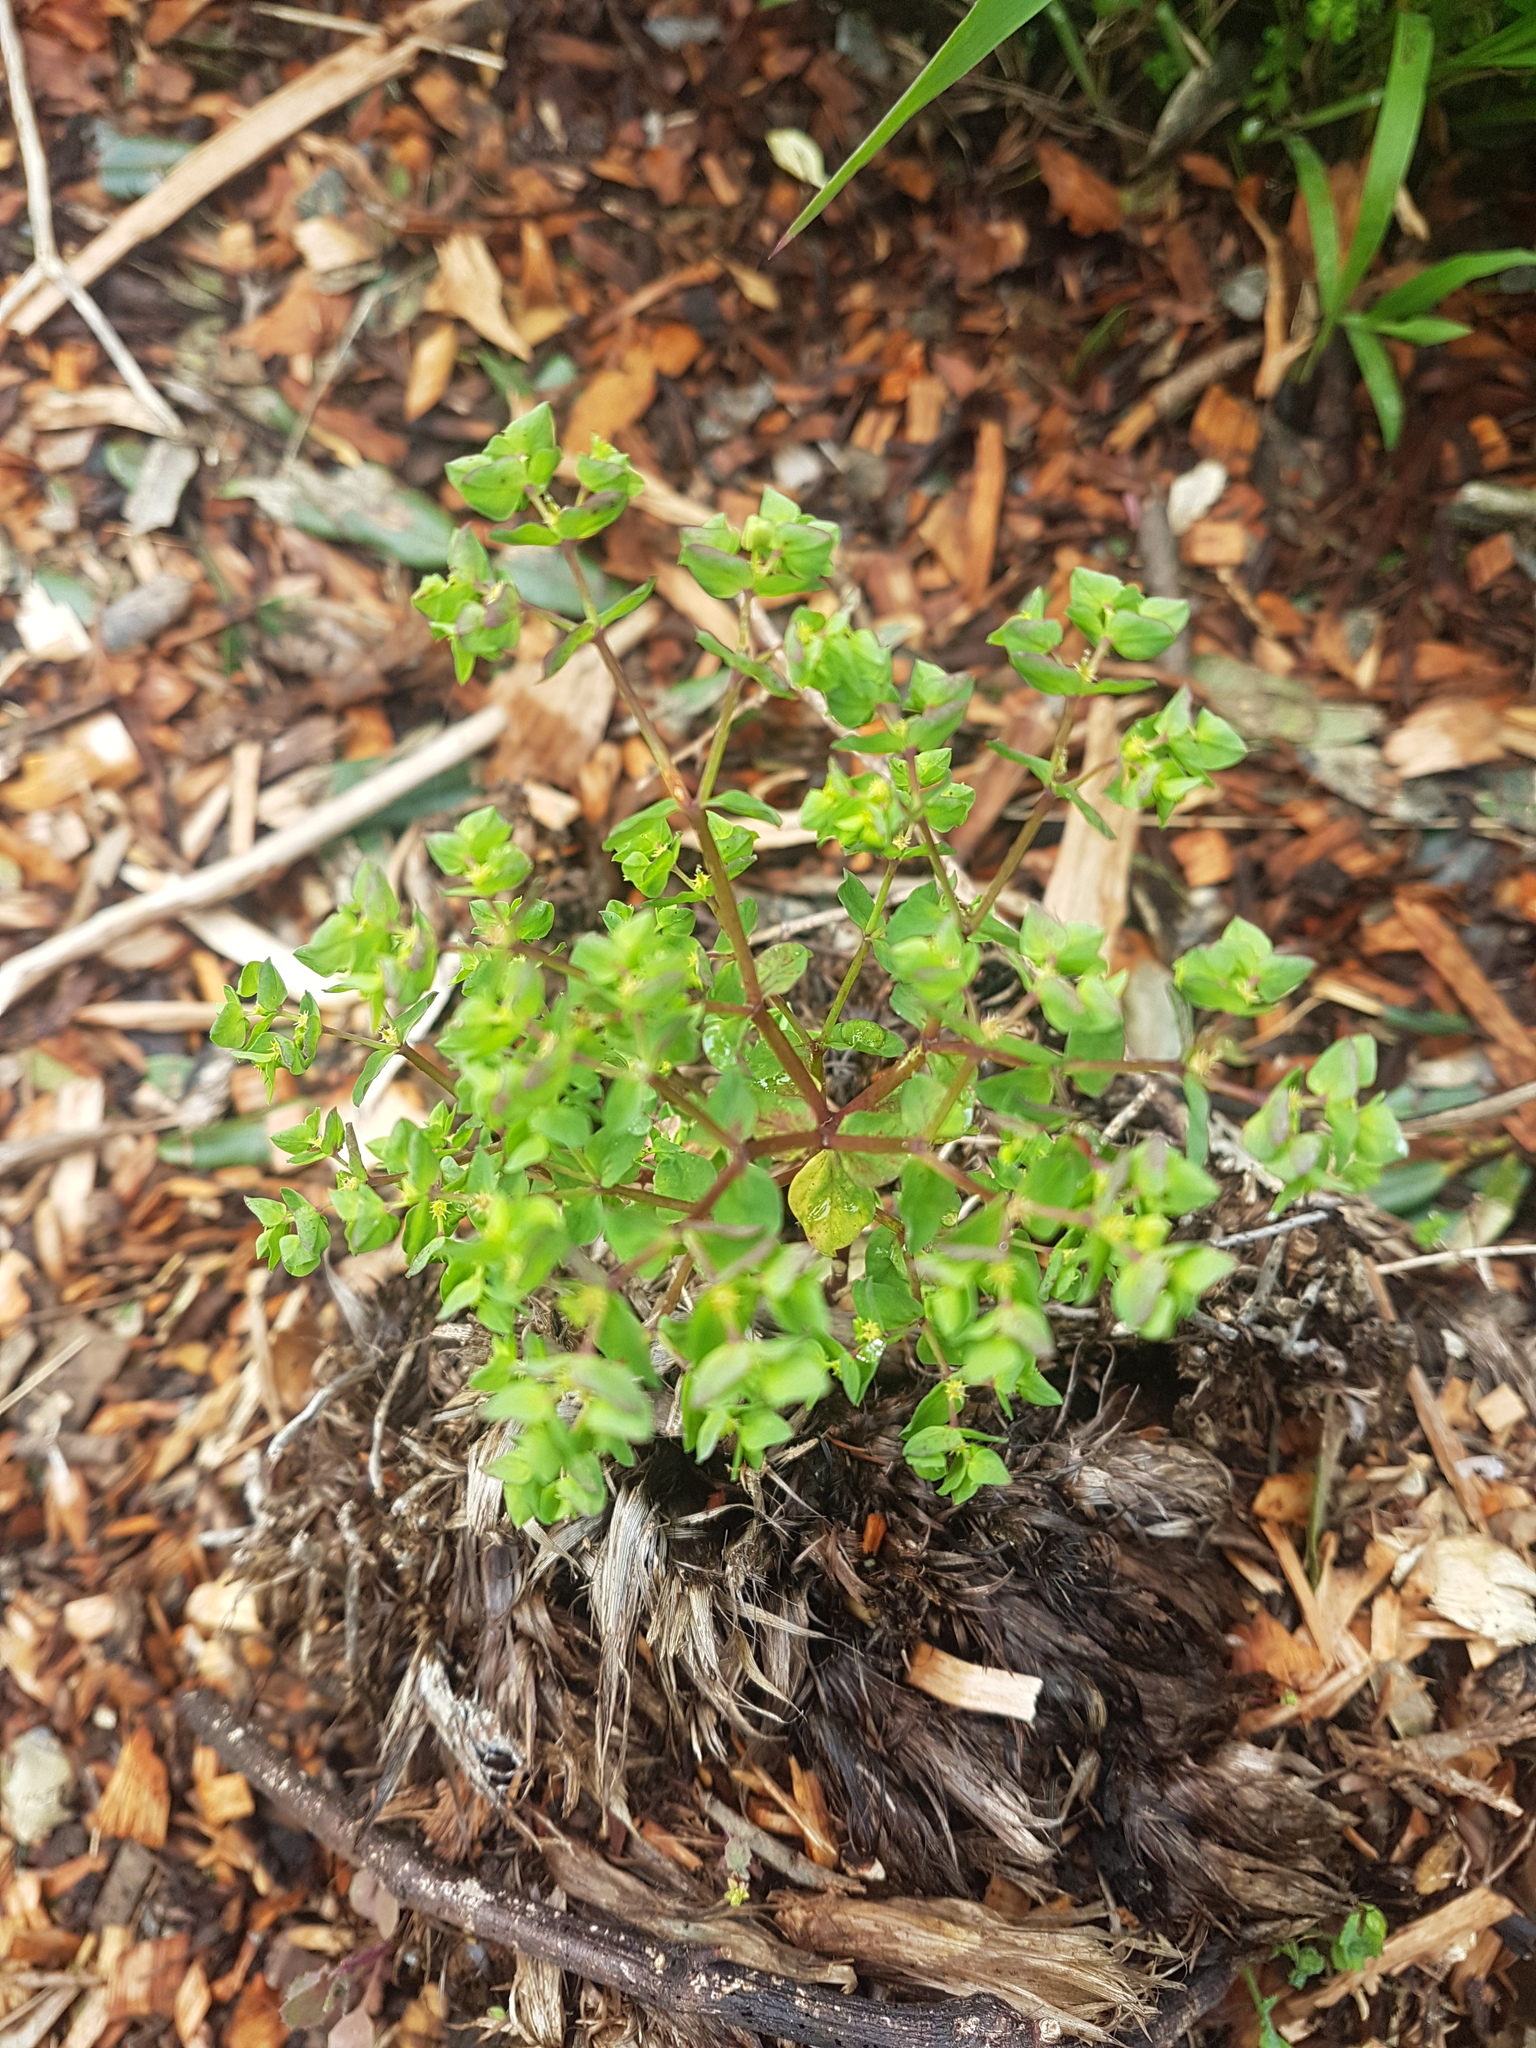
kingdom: Plantae
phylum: Tracheophyta
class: Magnoliopsida
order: Malpighiales
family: Euphorbiaceae
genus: Euphorbia
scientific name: Euphorbia peplus
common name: Petty spurge
